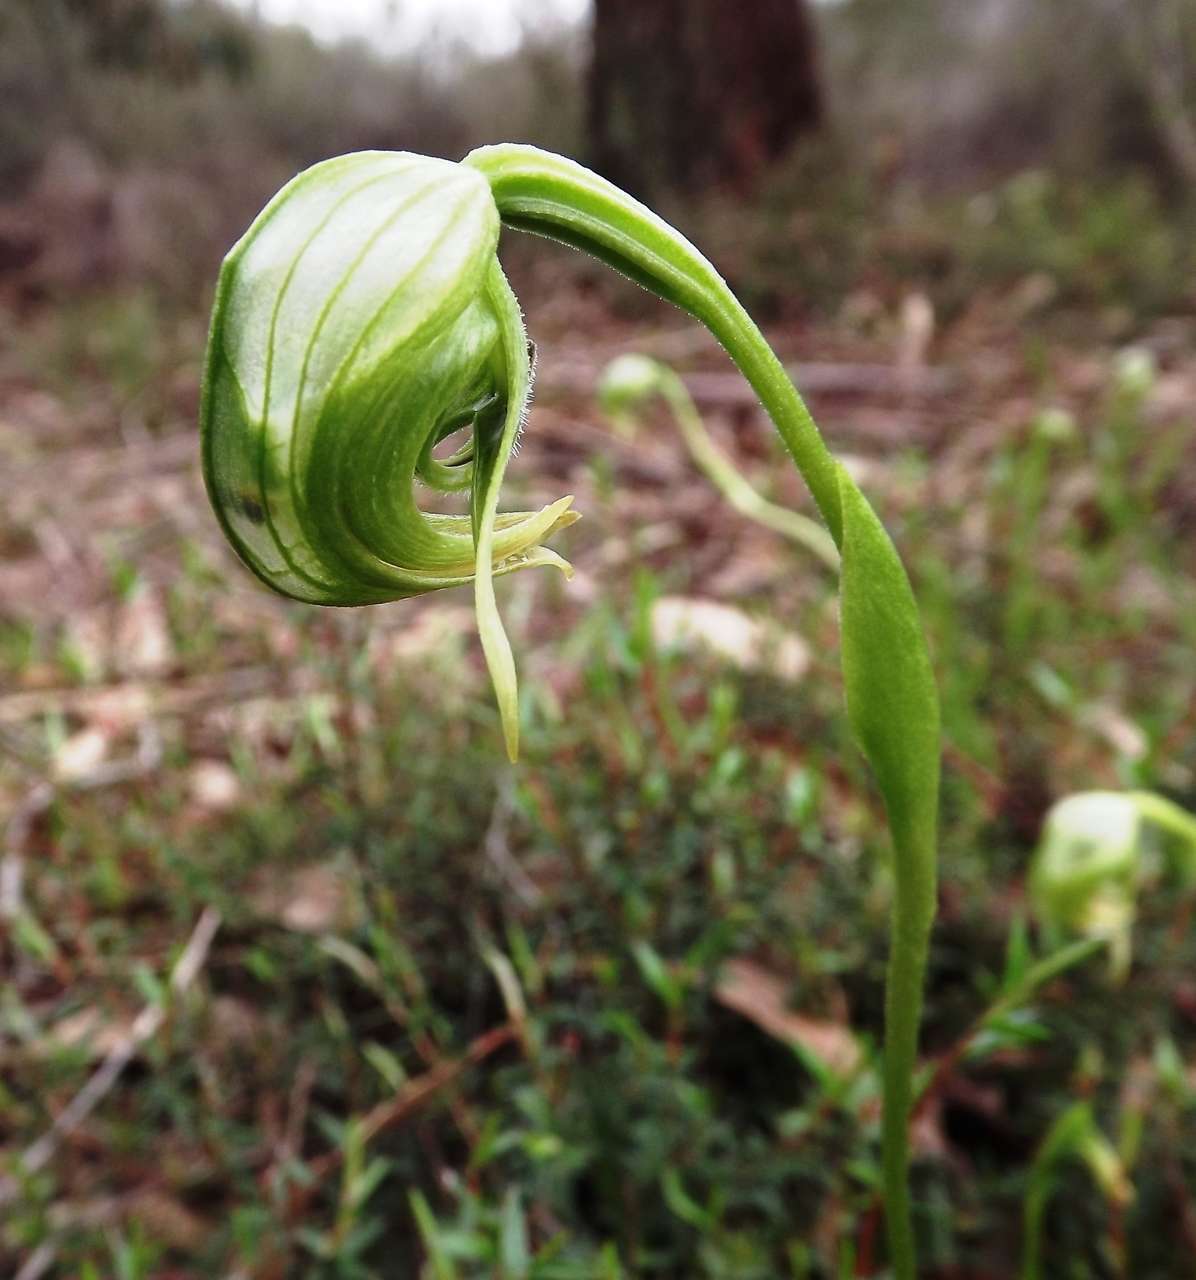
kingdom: Plantae
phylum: Tracheophyta
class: Liliopsida
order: Asparagales
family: Orchidaceae
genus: Pterostylis
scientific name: Pterostylis nutans
